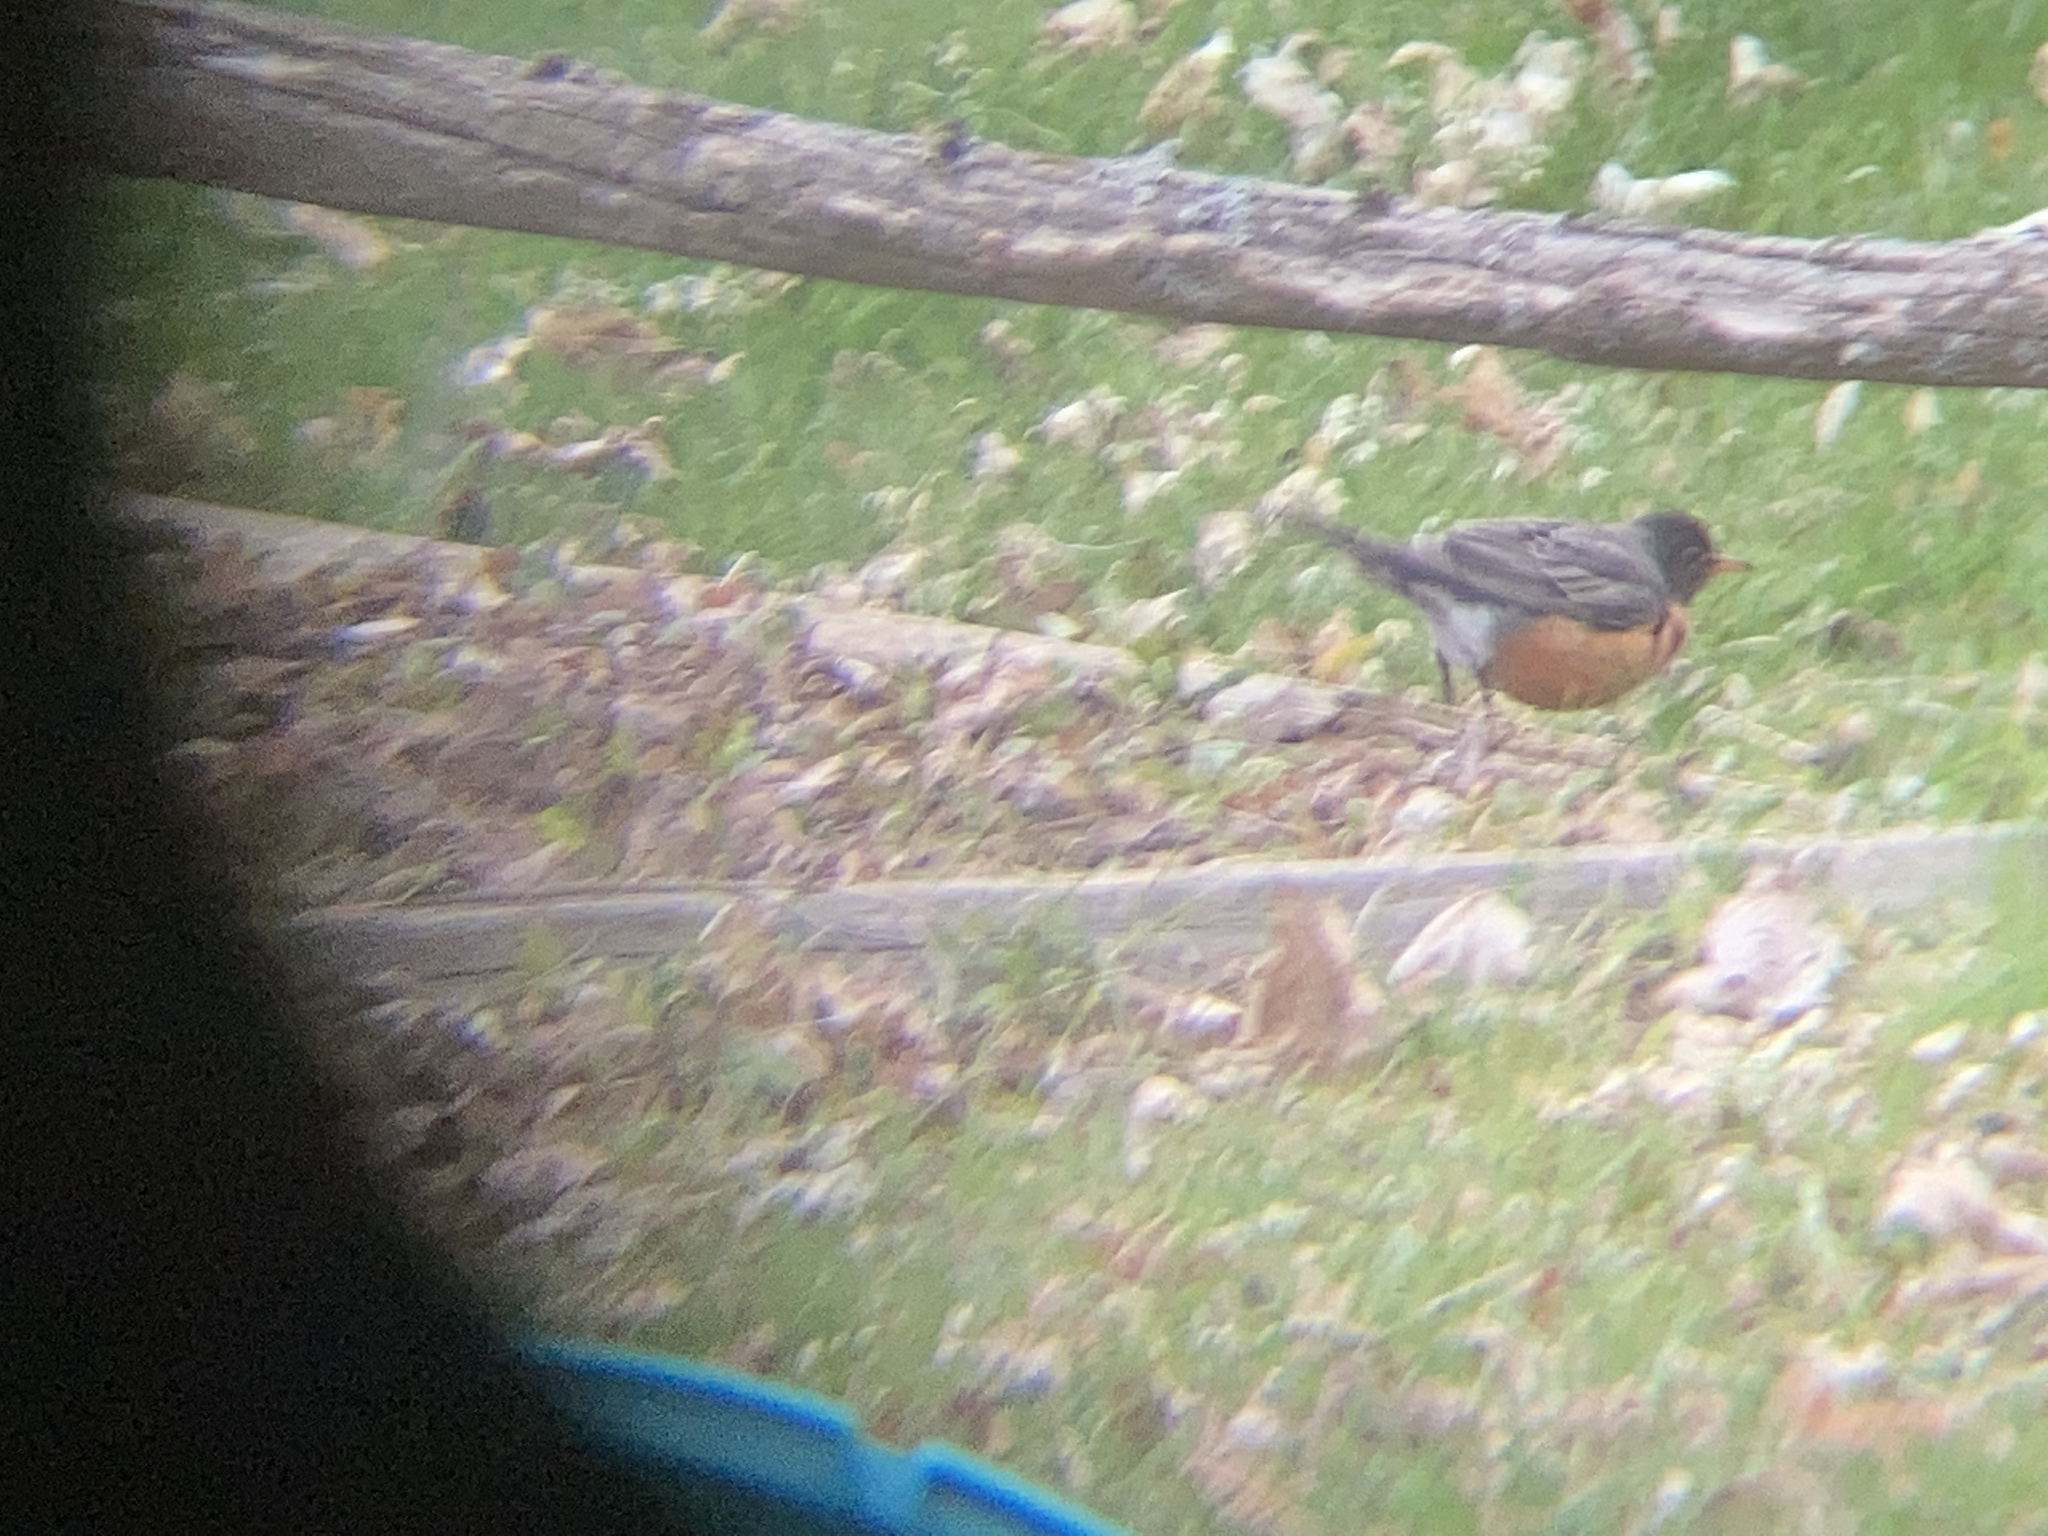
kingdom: Animalia
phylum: Chordata
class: Aves
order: Passeriformes
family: Turdidae
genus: Turdus
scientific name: Turdus migratorius
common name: American robin
